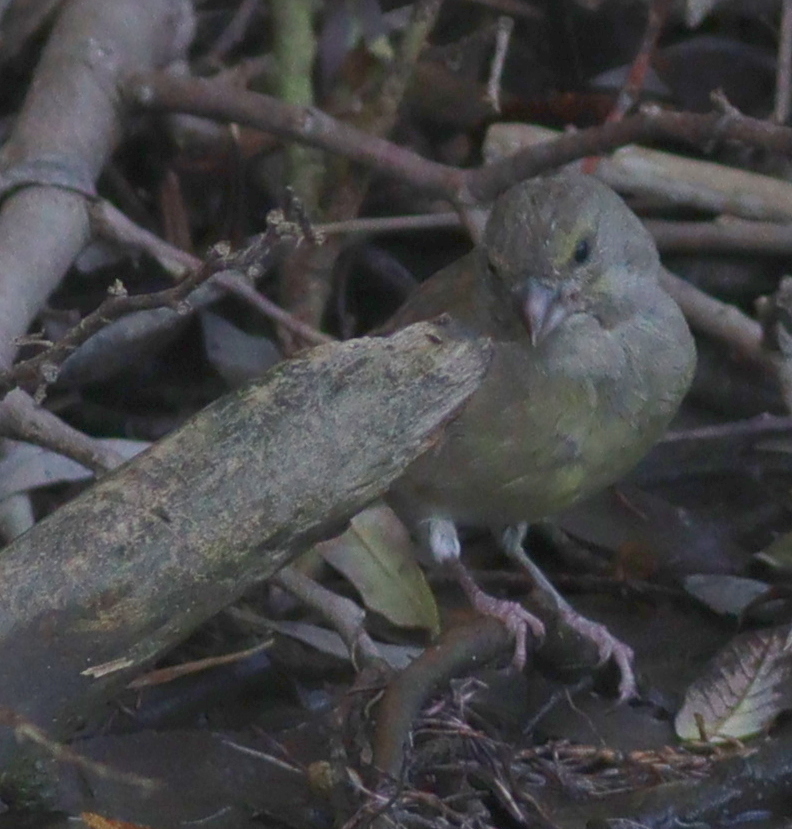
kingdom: Plantae
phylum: Tracheophyta
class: Liliopsida
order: Poales
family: Poaceae
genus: Chloris
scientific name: Chloris chloris
